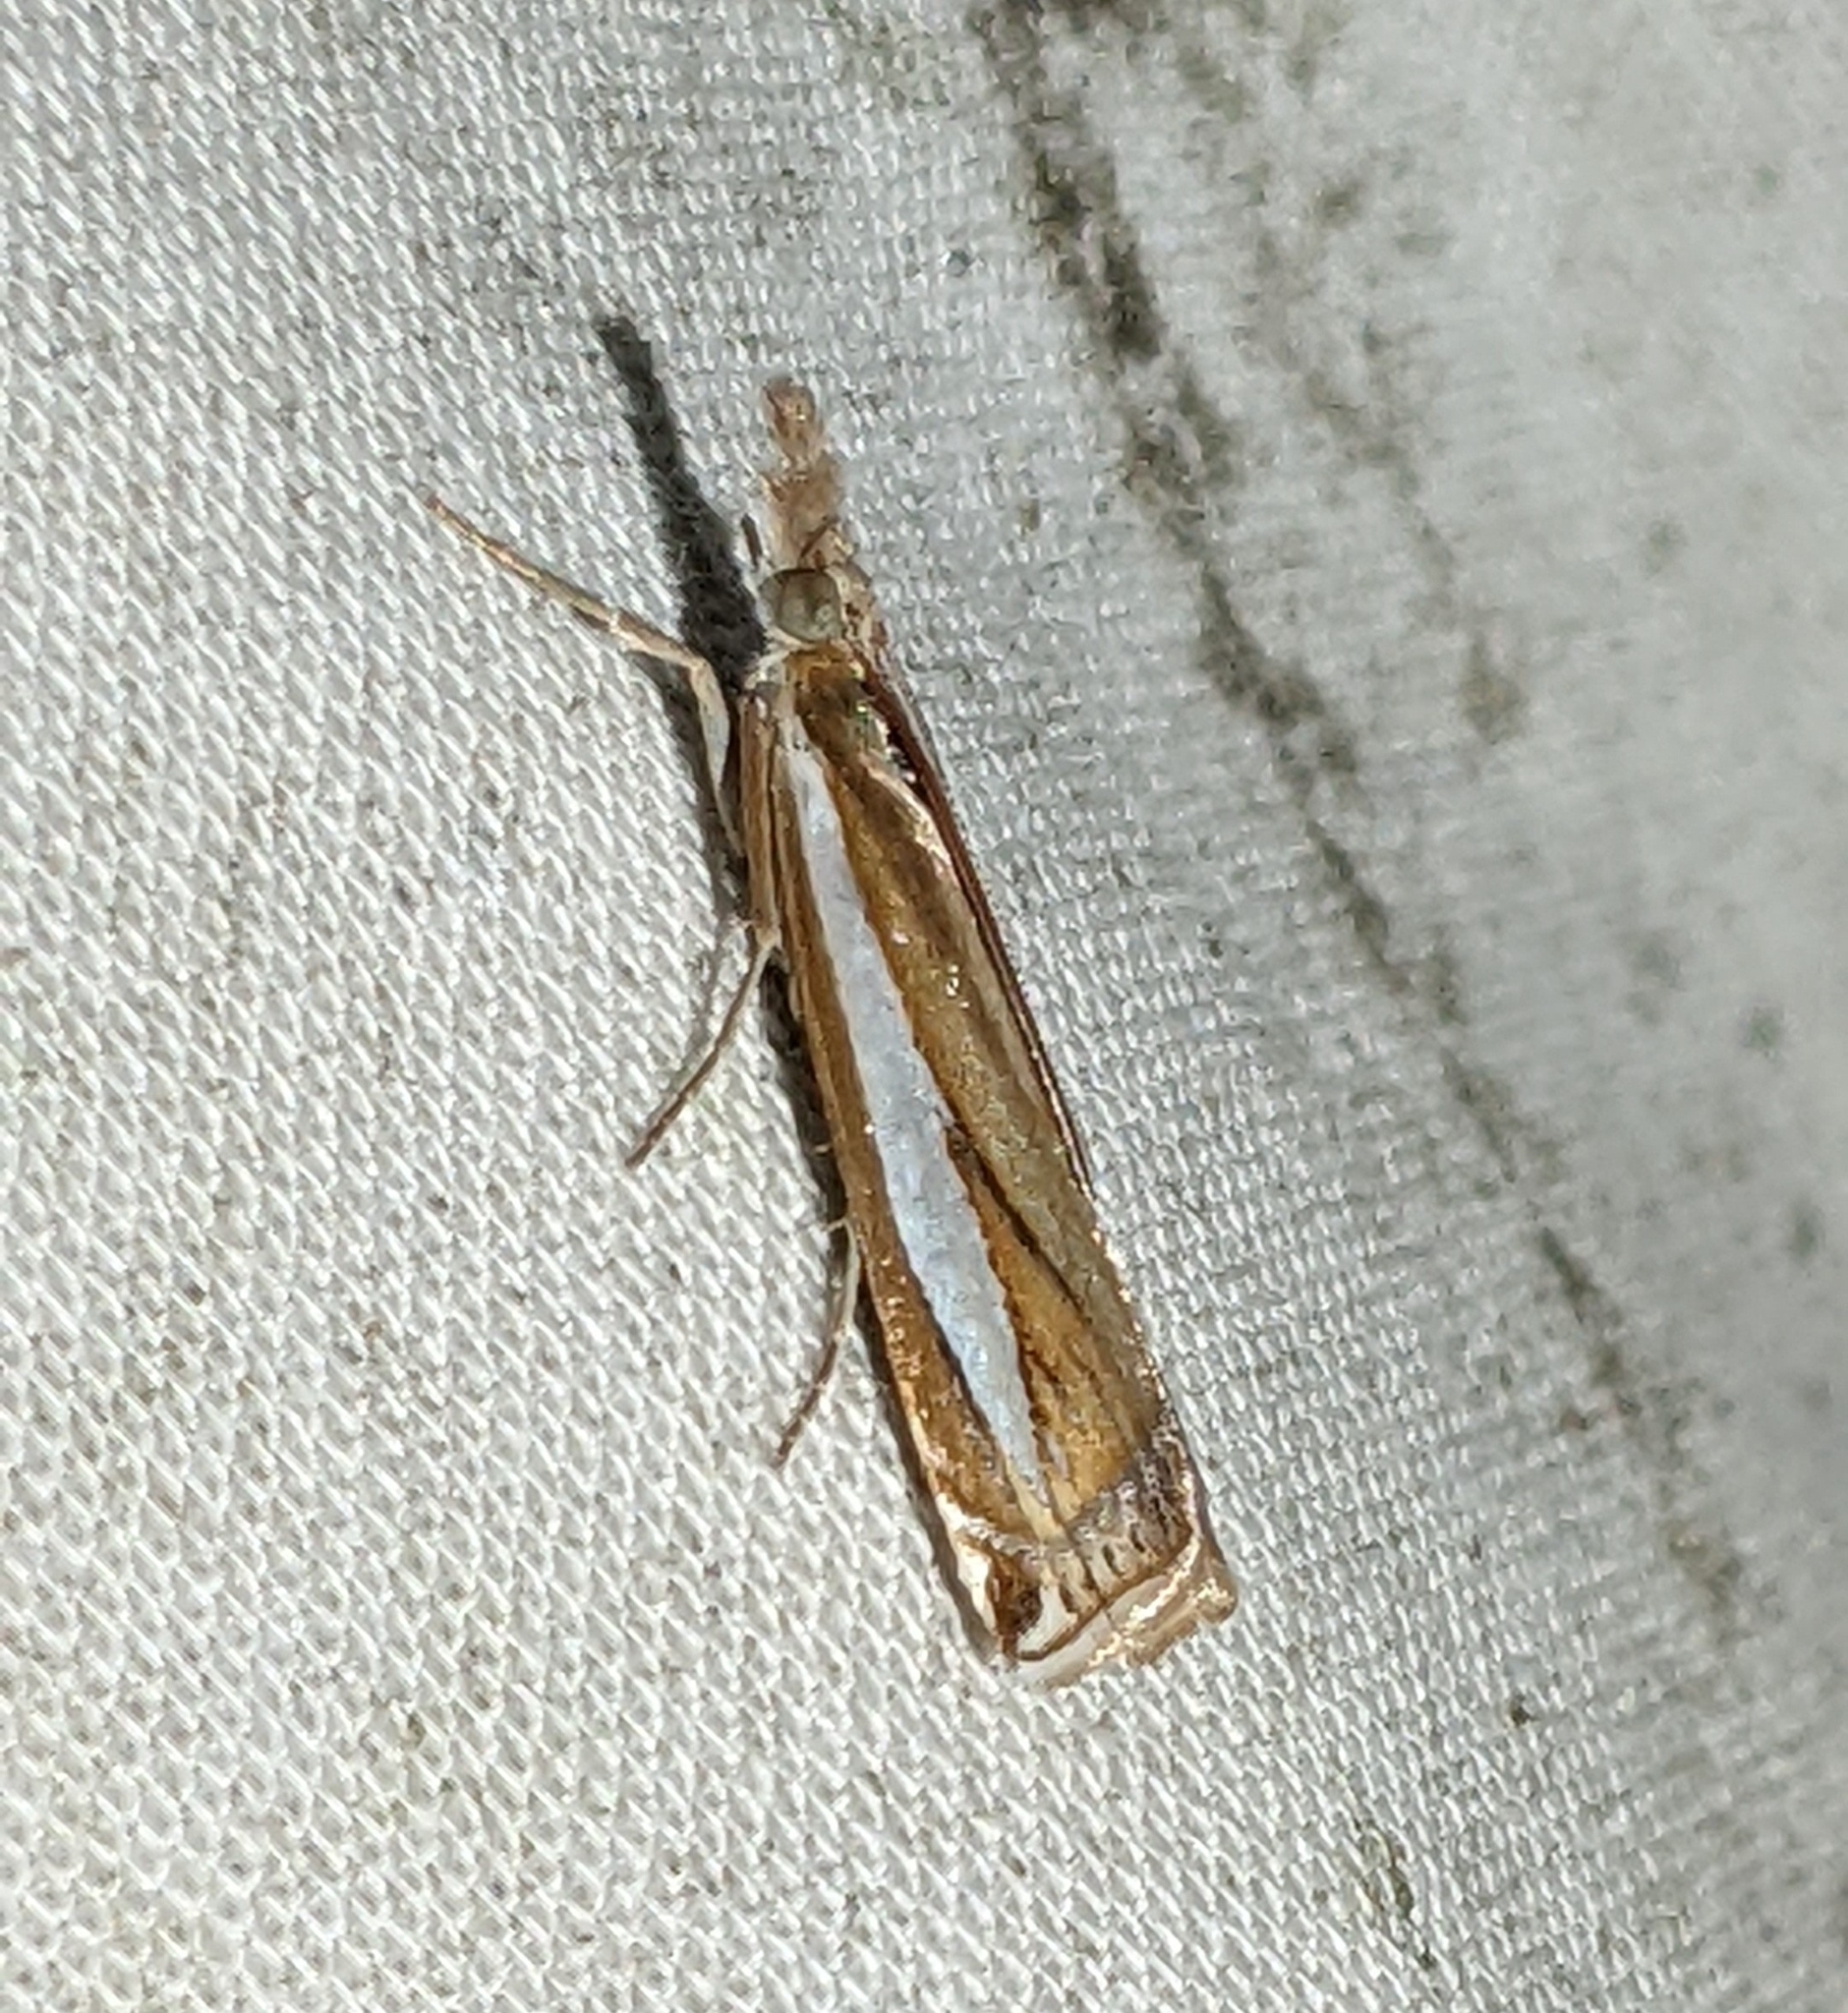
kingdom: Animalia
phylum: Arthropoda
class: Insecta
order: Lepidoptera
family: Crambidae
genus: Crambus
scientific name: Crambus praefectellus
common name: Common grass-veneer
